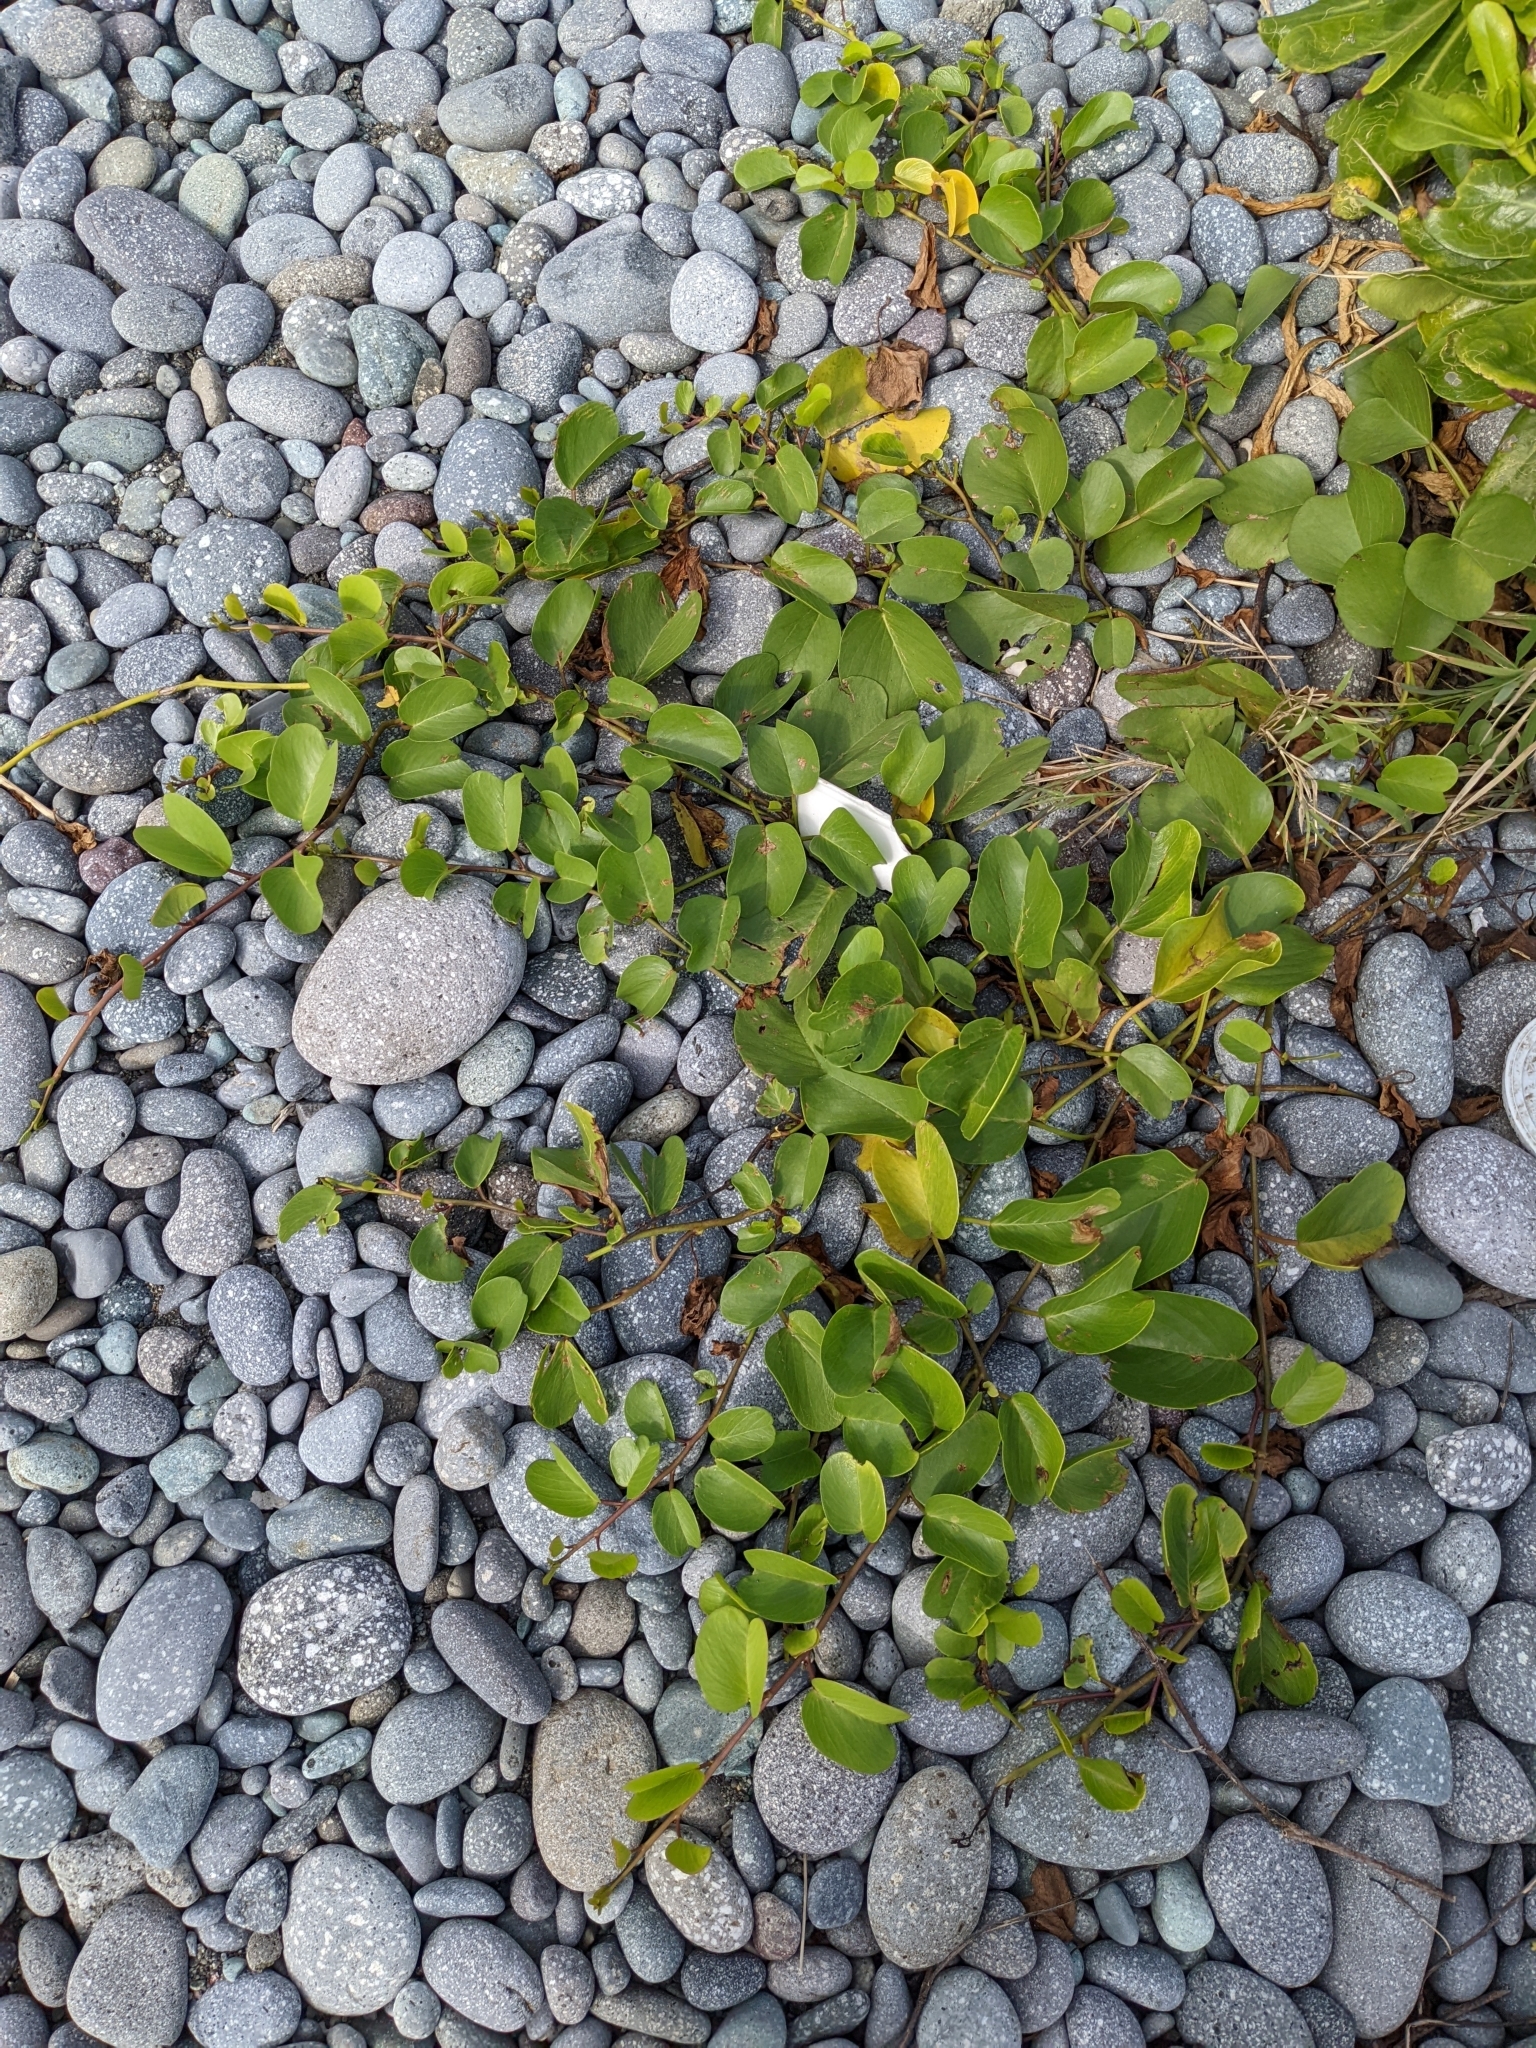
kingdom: Plantae
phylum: Tracheophyta
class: Magnoliopsida
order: Solanales
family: Convolvulaceae
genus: Ipomoea
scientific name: Ipomoea pes-caprae
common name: Beach morning glory
